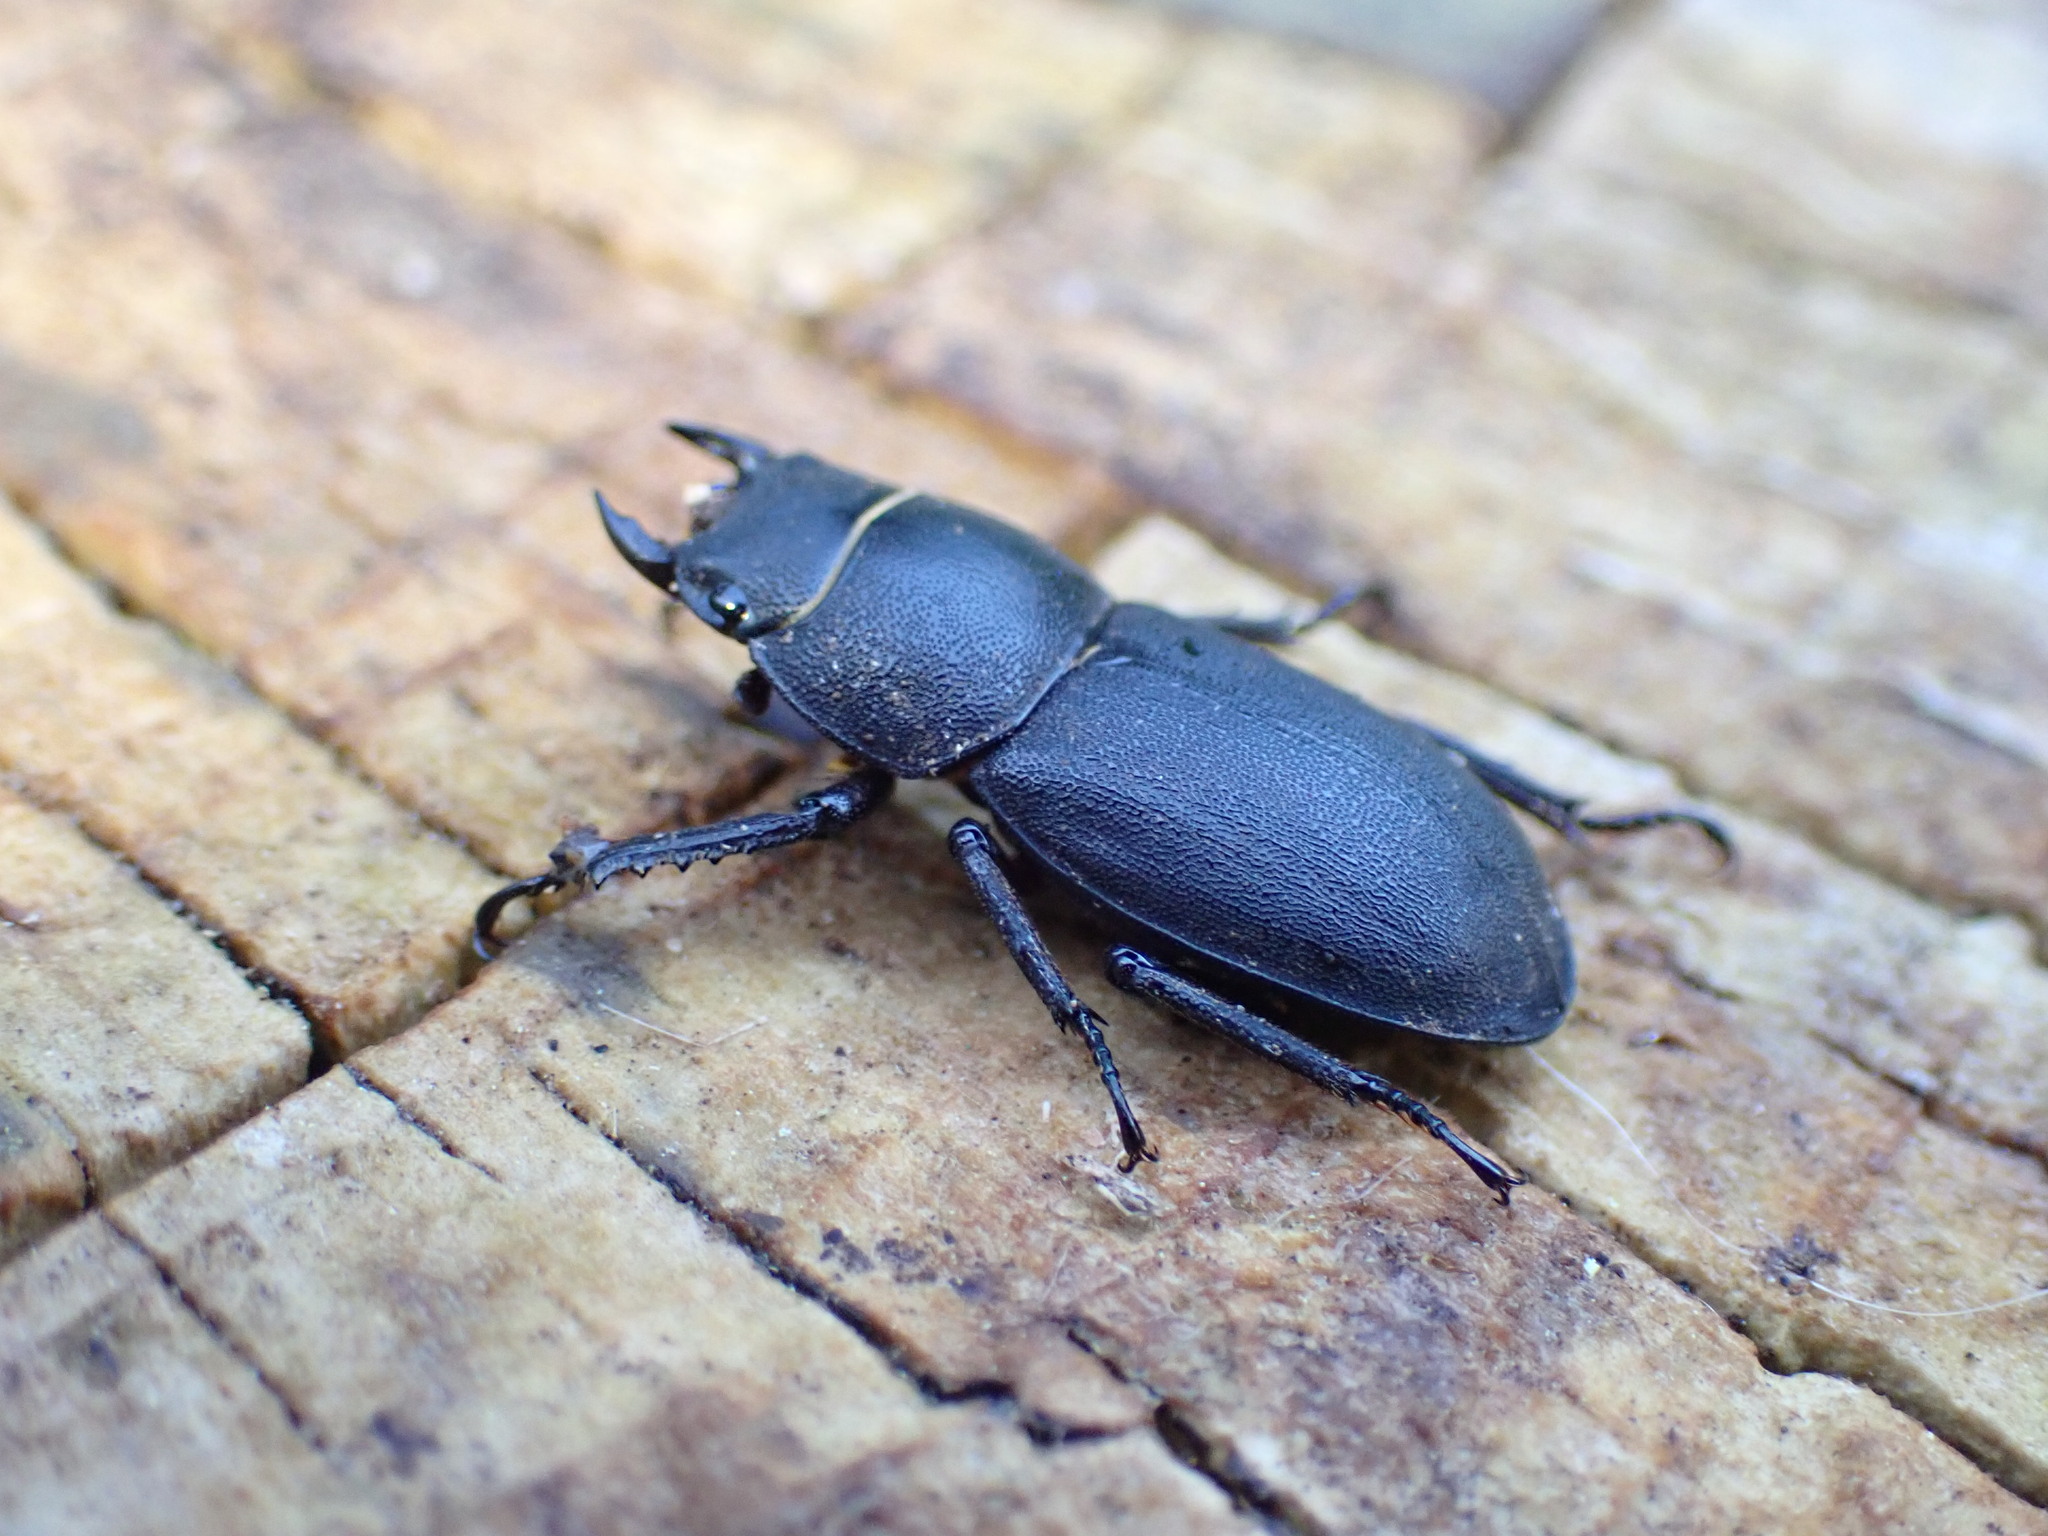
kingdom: Animalia
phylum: Arthropoda
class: Insecta
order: Coleoptera
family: Lucanidae
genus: Dorcus
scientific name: Dorcus parallelipipedus
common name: Lesser stag beetle
